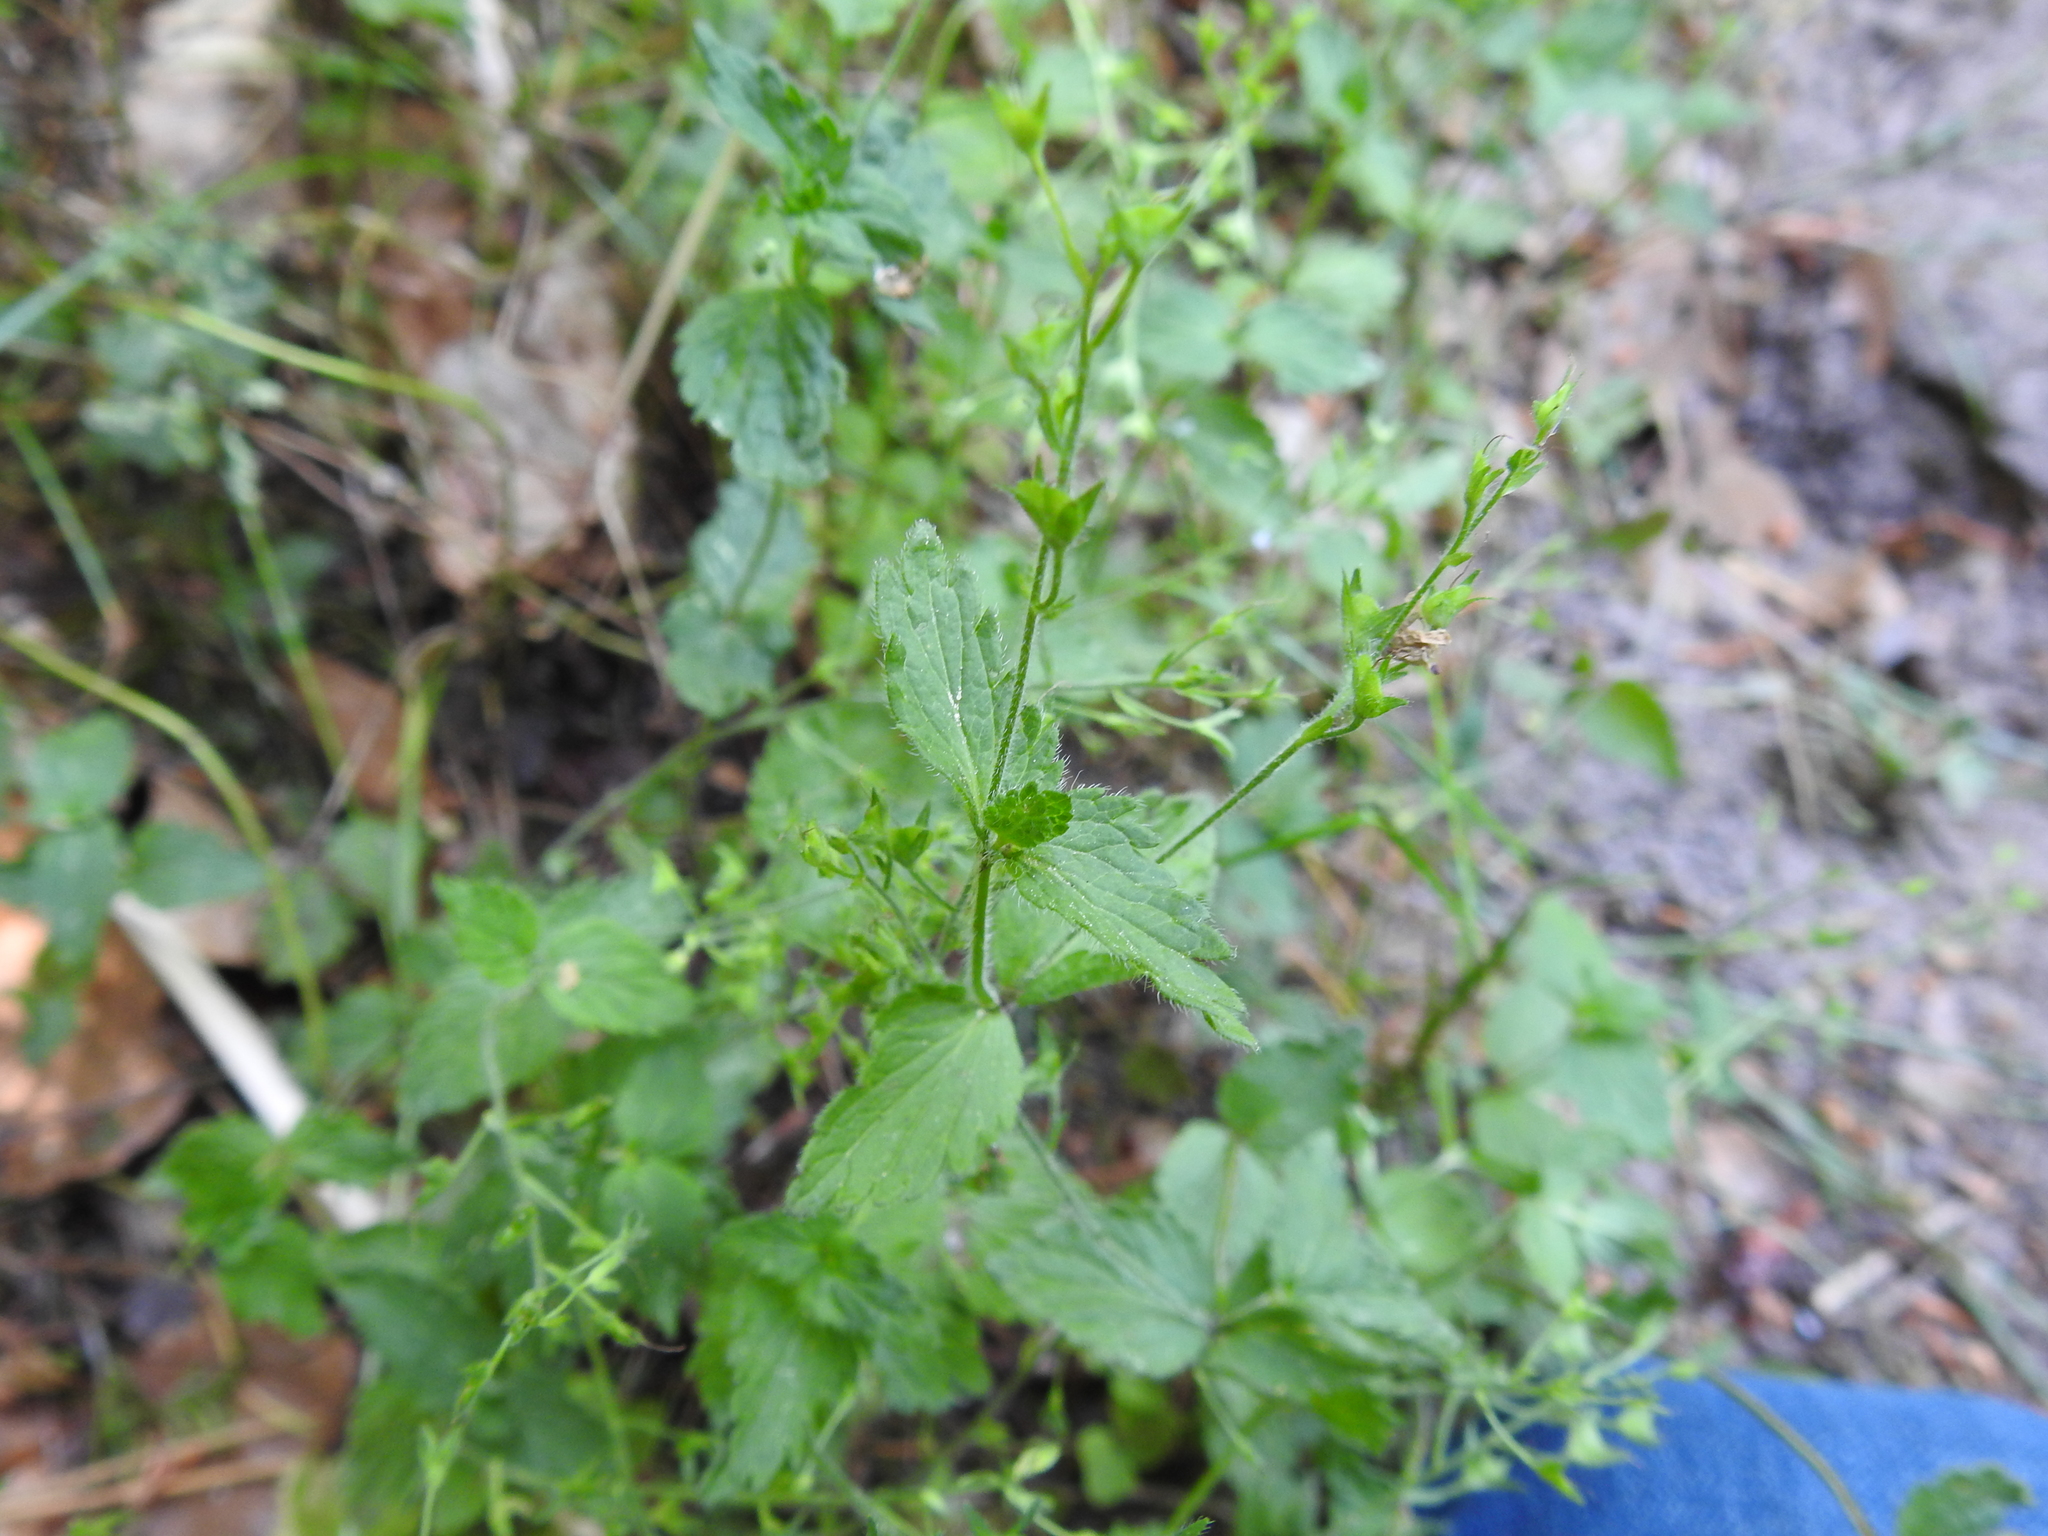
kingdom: Plantae
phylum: Tracheophyta
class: Magnoliopsida
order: Lamiales
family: Plantaginaceae
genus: Veronica
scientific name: Veronica chamaedrys
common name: Germander speedwell
